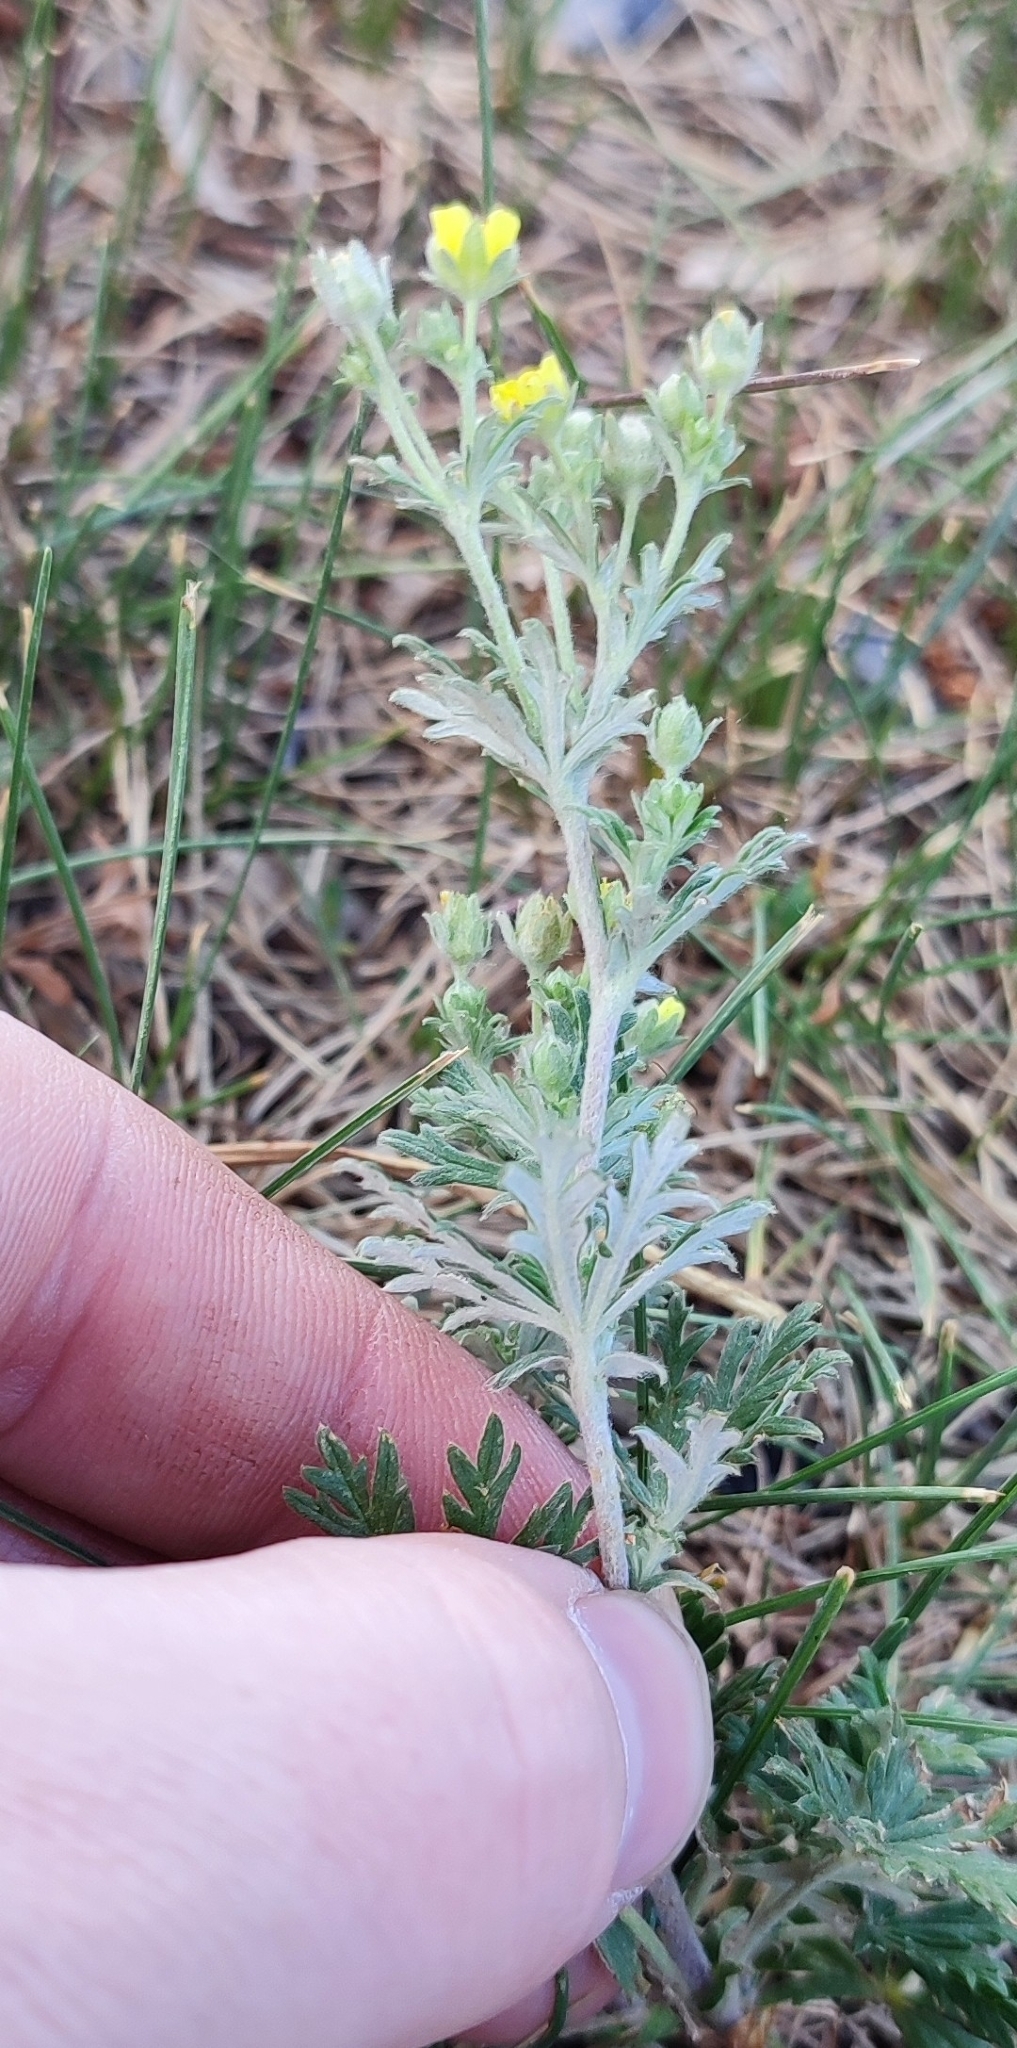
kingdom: Plantae
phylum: Tracheophyta
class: Magnoliopsida
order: Rosales
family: Rosaceae
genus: Potentilla
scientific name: Potentilla argentea
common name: Hoary cinquefoil
